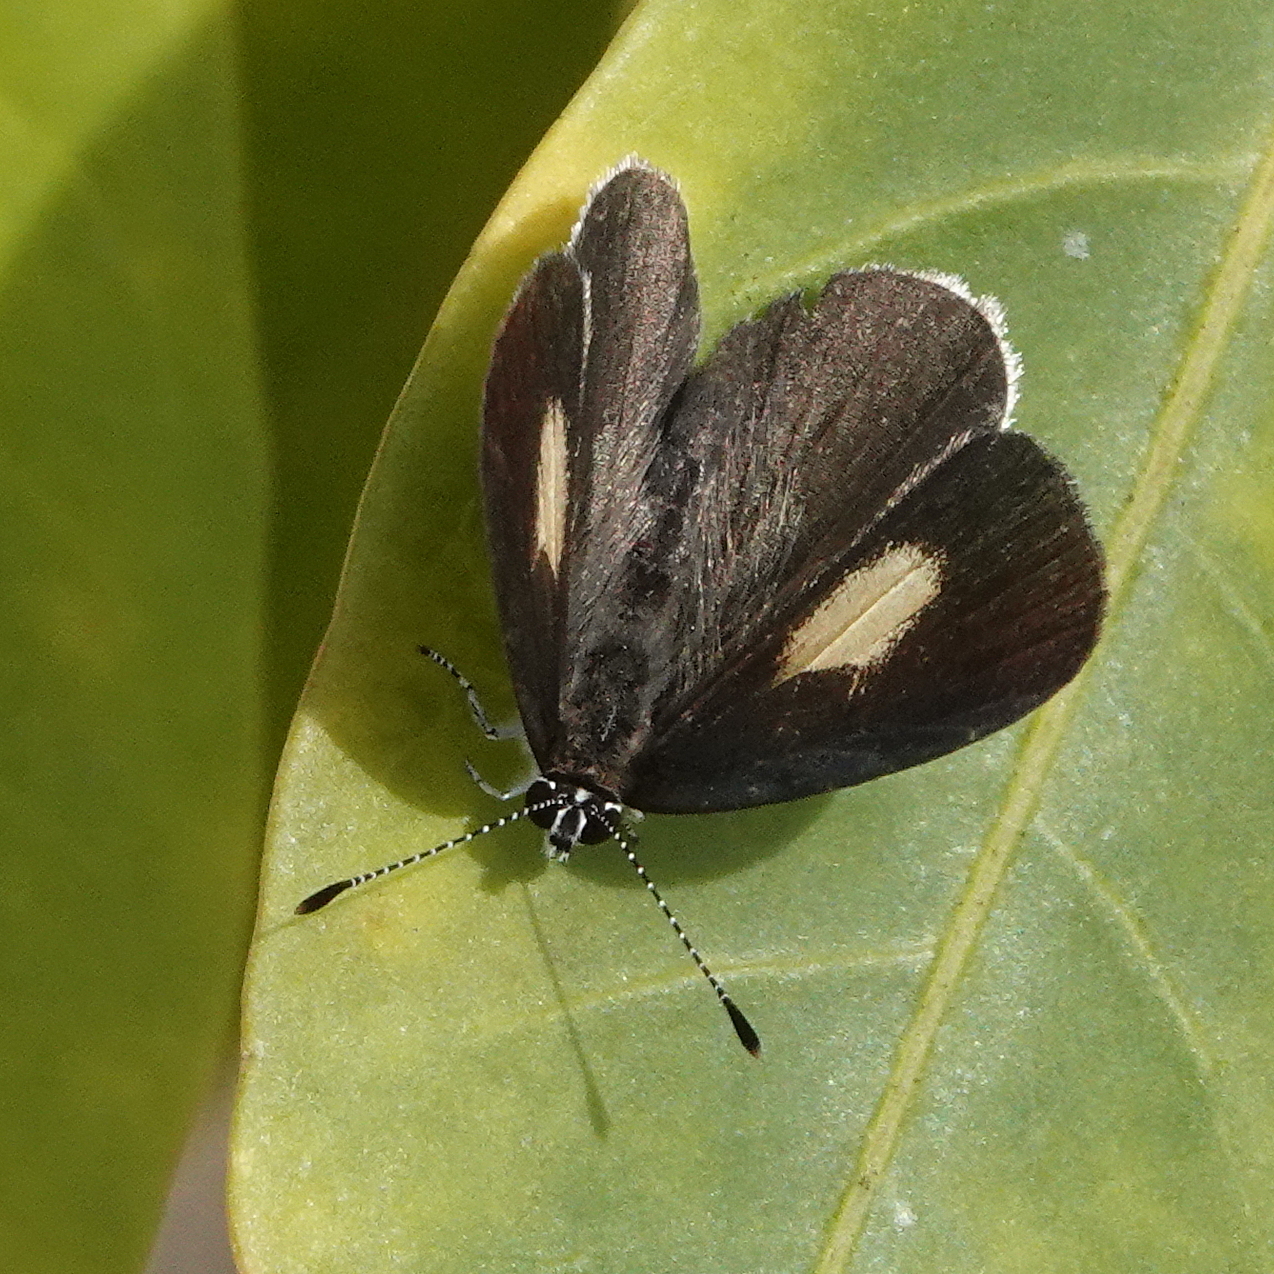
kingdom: Animalia
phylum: Arthropoda
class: Insecta
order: Lepidoptera
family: Lycaenidae
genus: Candalides
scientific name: Candalides xanthospilos
